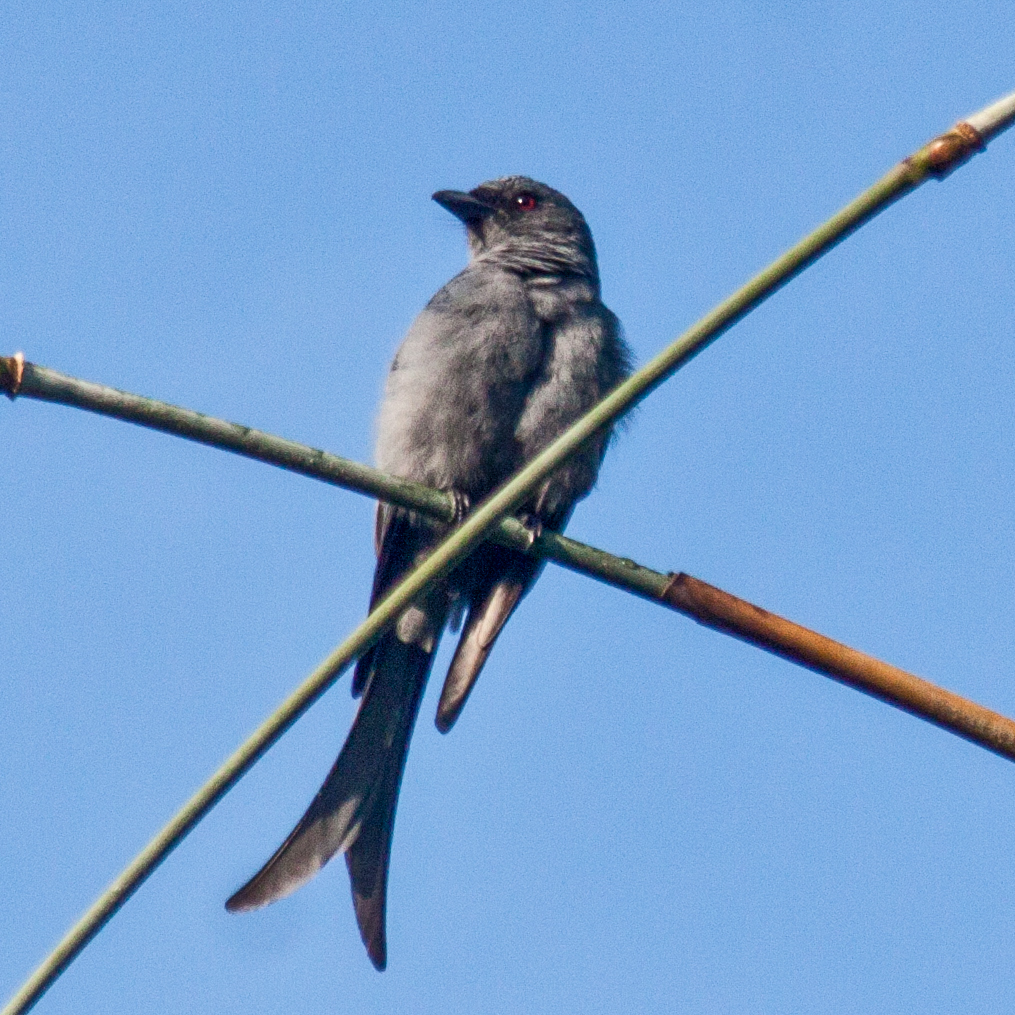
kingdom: Animalia
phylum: Chordata
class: Aves
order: Passeriformes
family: Dicruridae
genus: Dicrurus
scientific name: Dicrurus leucophaeus
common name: Ashy drongo
